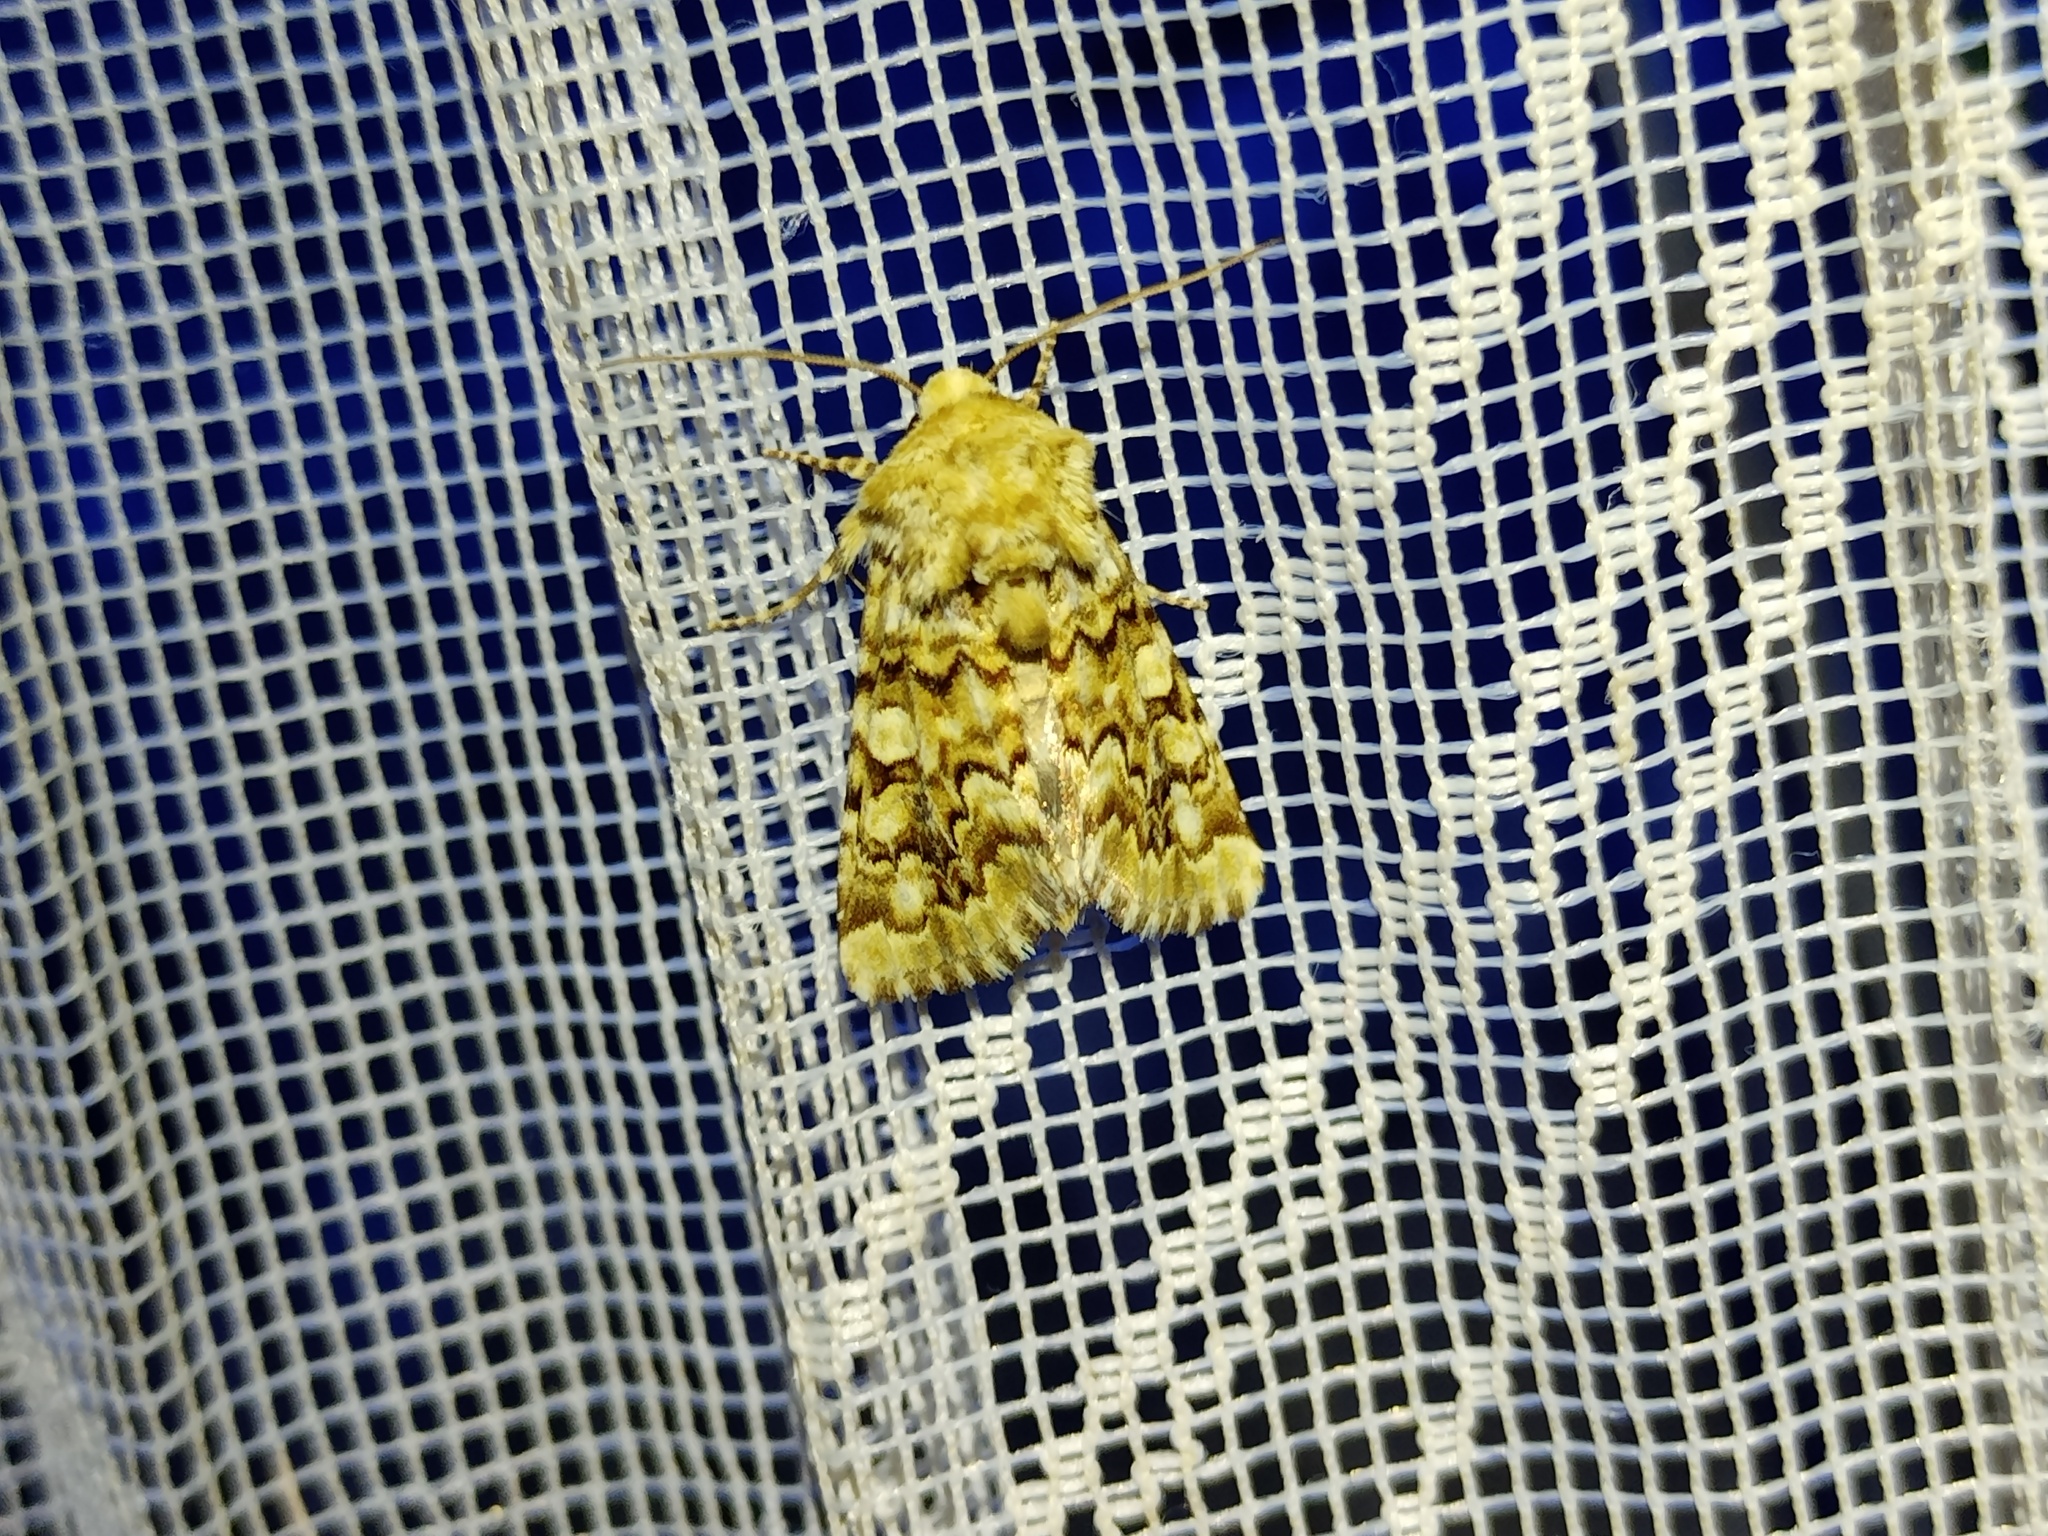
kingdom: Animalia
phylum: Arthropoda
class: Insecta
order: Lepidoptera
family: Noctuidae
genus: Hadena
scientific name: Hadena irregularis
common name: Vipers bugloss
